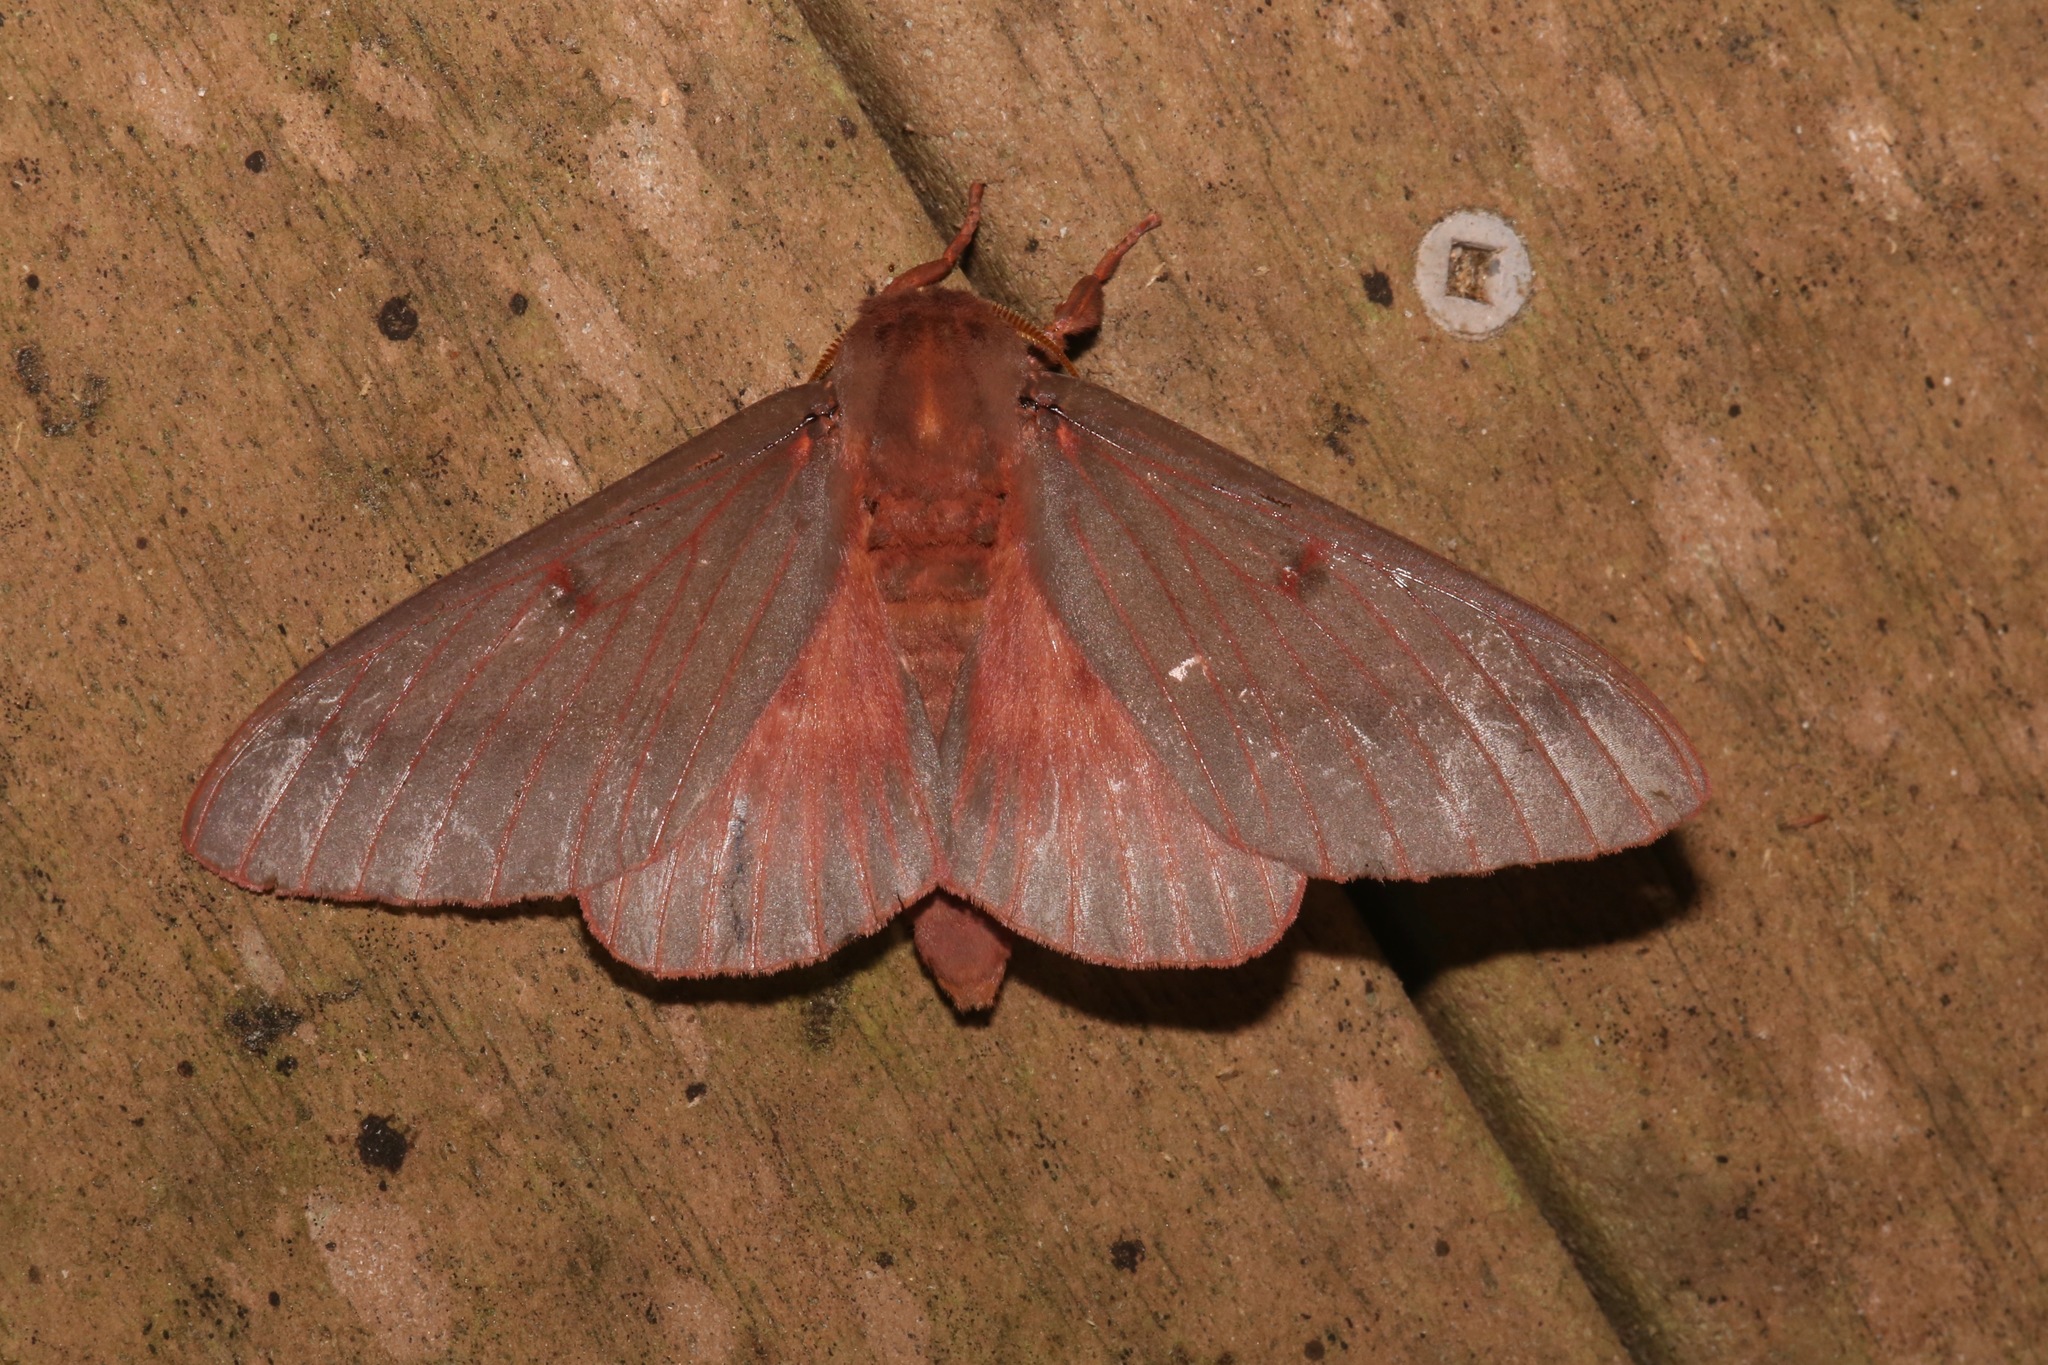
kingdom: Animalia
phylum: Arthropoda
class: Insecta
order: Lepidoptera
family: Saturniidae
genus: Citheronia
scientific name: Citheronia sepulcralis
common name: Pine-devil moth
